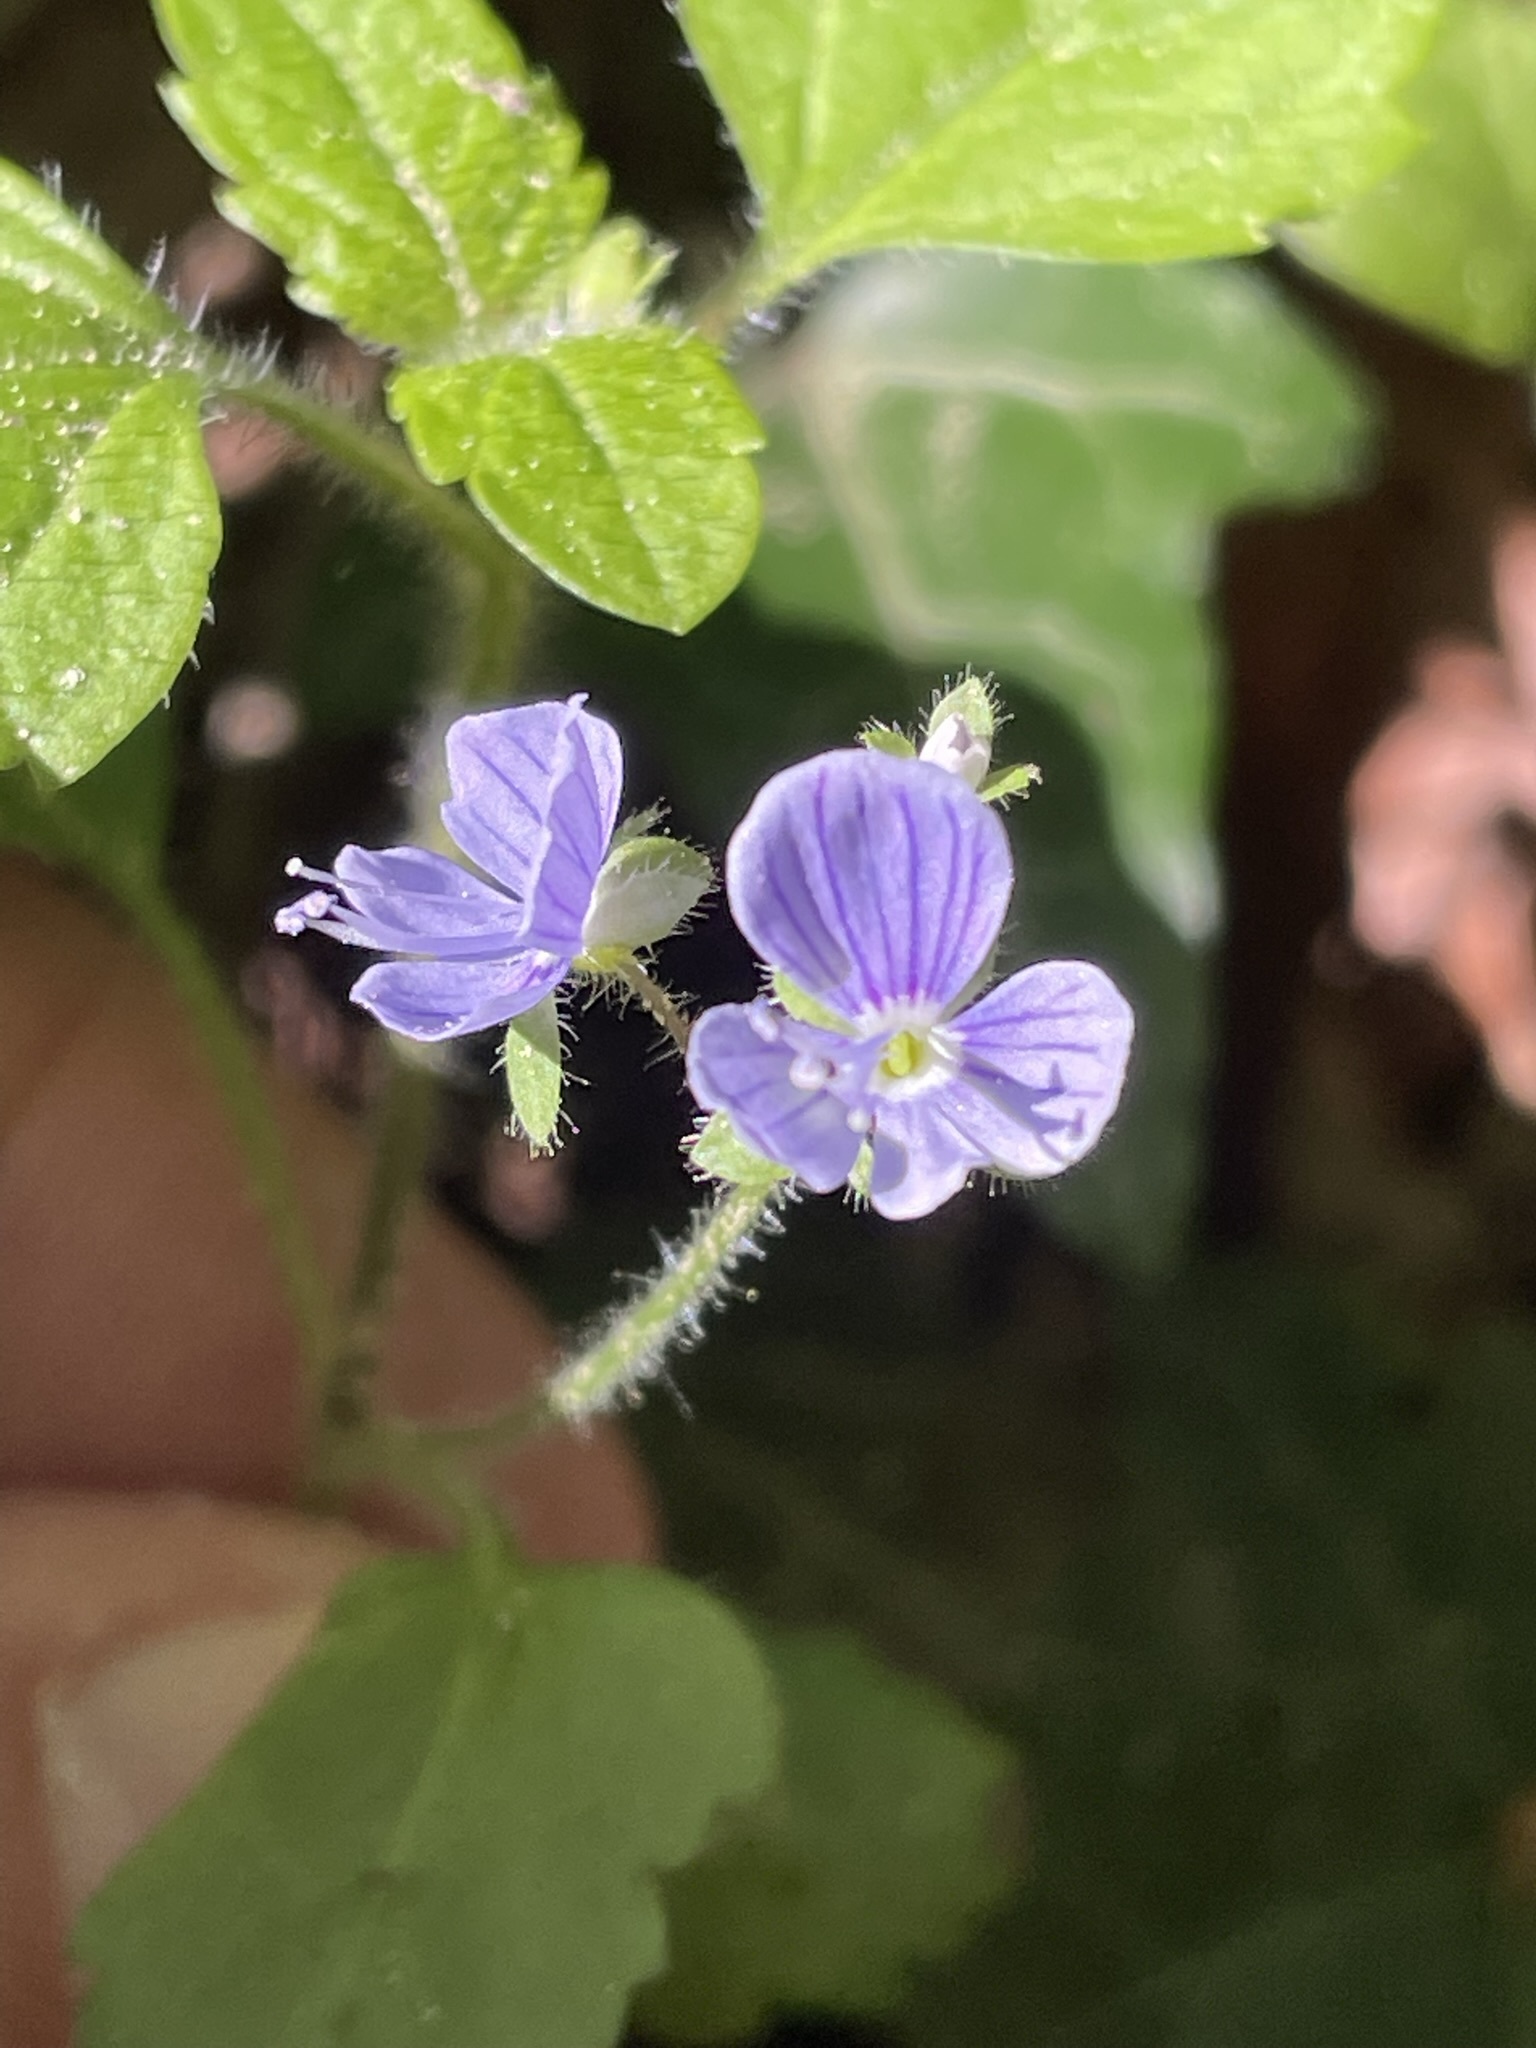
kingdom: Plantae
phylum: Tracheophyta
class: Magnoliopsida
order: Lamiales
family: Plantaginaceae
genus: Veronica
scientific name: Veronica montana
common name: Wood speedwell
